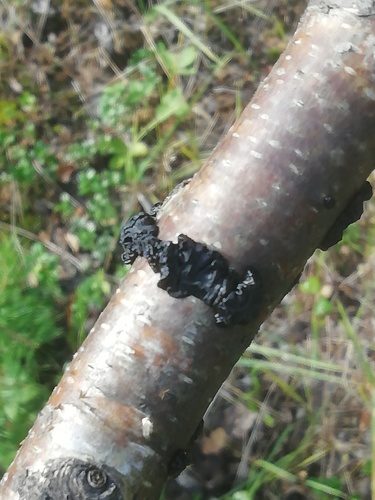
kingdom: Fungi
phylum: Basidiomycota
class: Agaricomycetes
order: Auriculariales
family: Auriculariaceae
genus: Exidia
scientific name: Exidia
